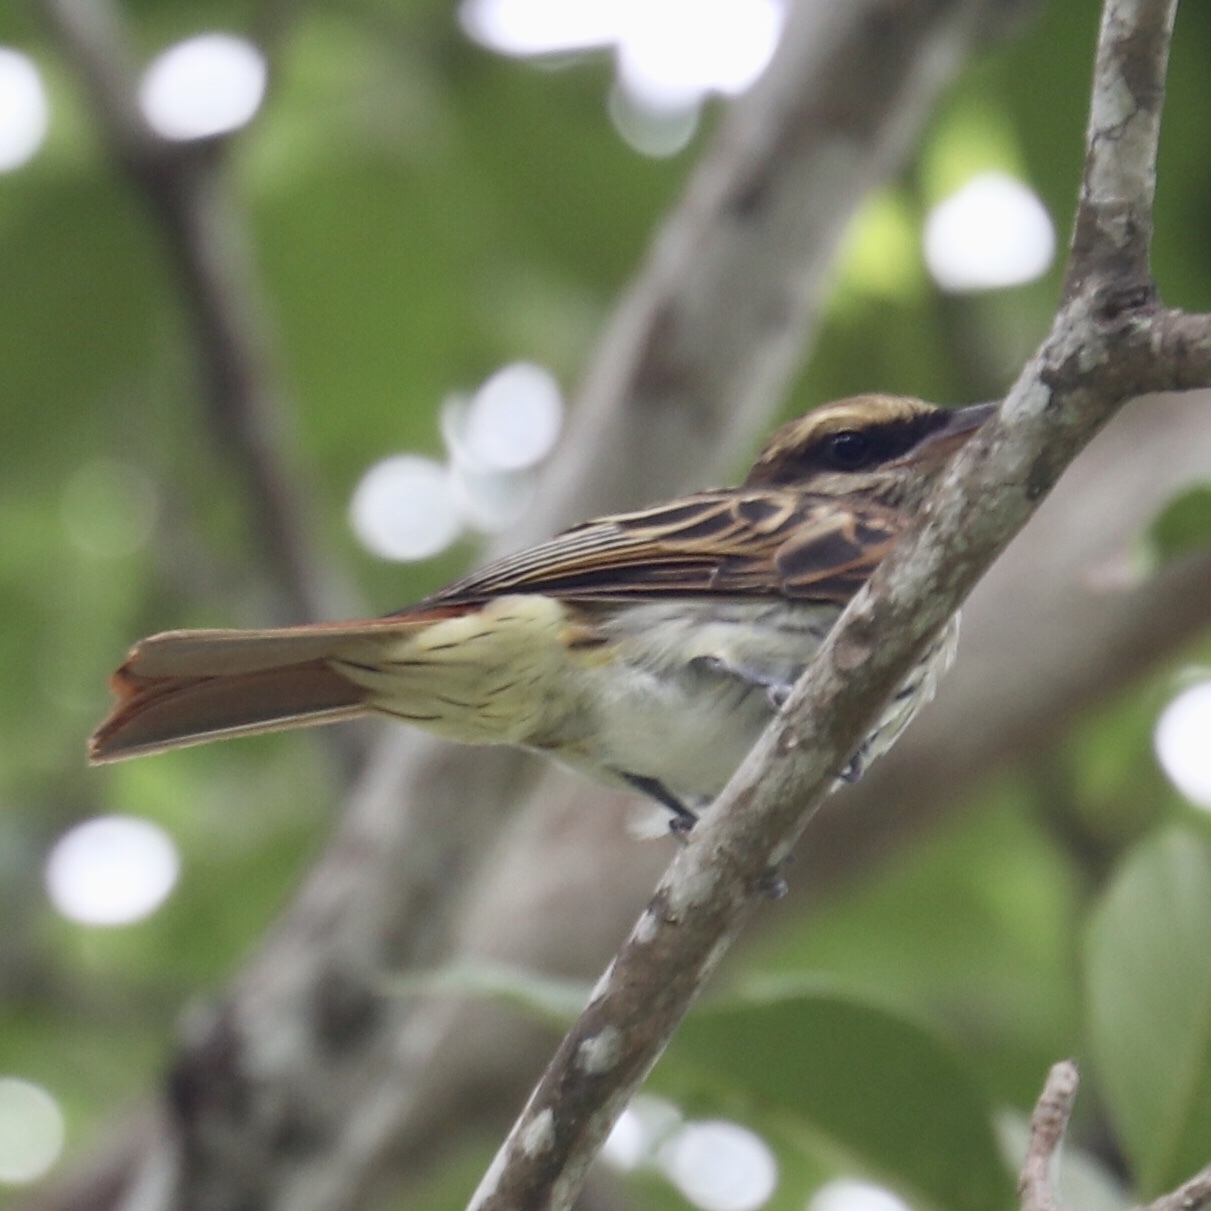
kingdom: Animalia
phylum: Chordata
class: Aves
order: Passeriformes
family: Tyrannidae
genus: Myiodynastes
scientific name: Myiodynastes maculatus
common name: Streaked flycatcher
